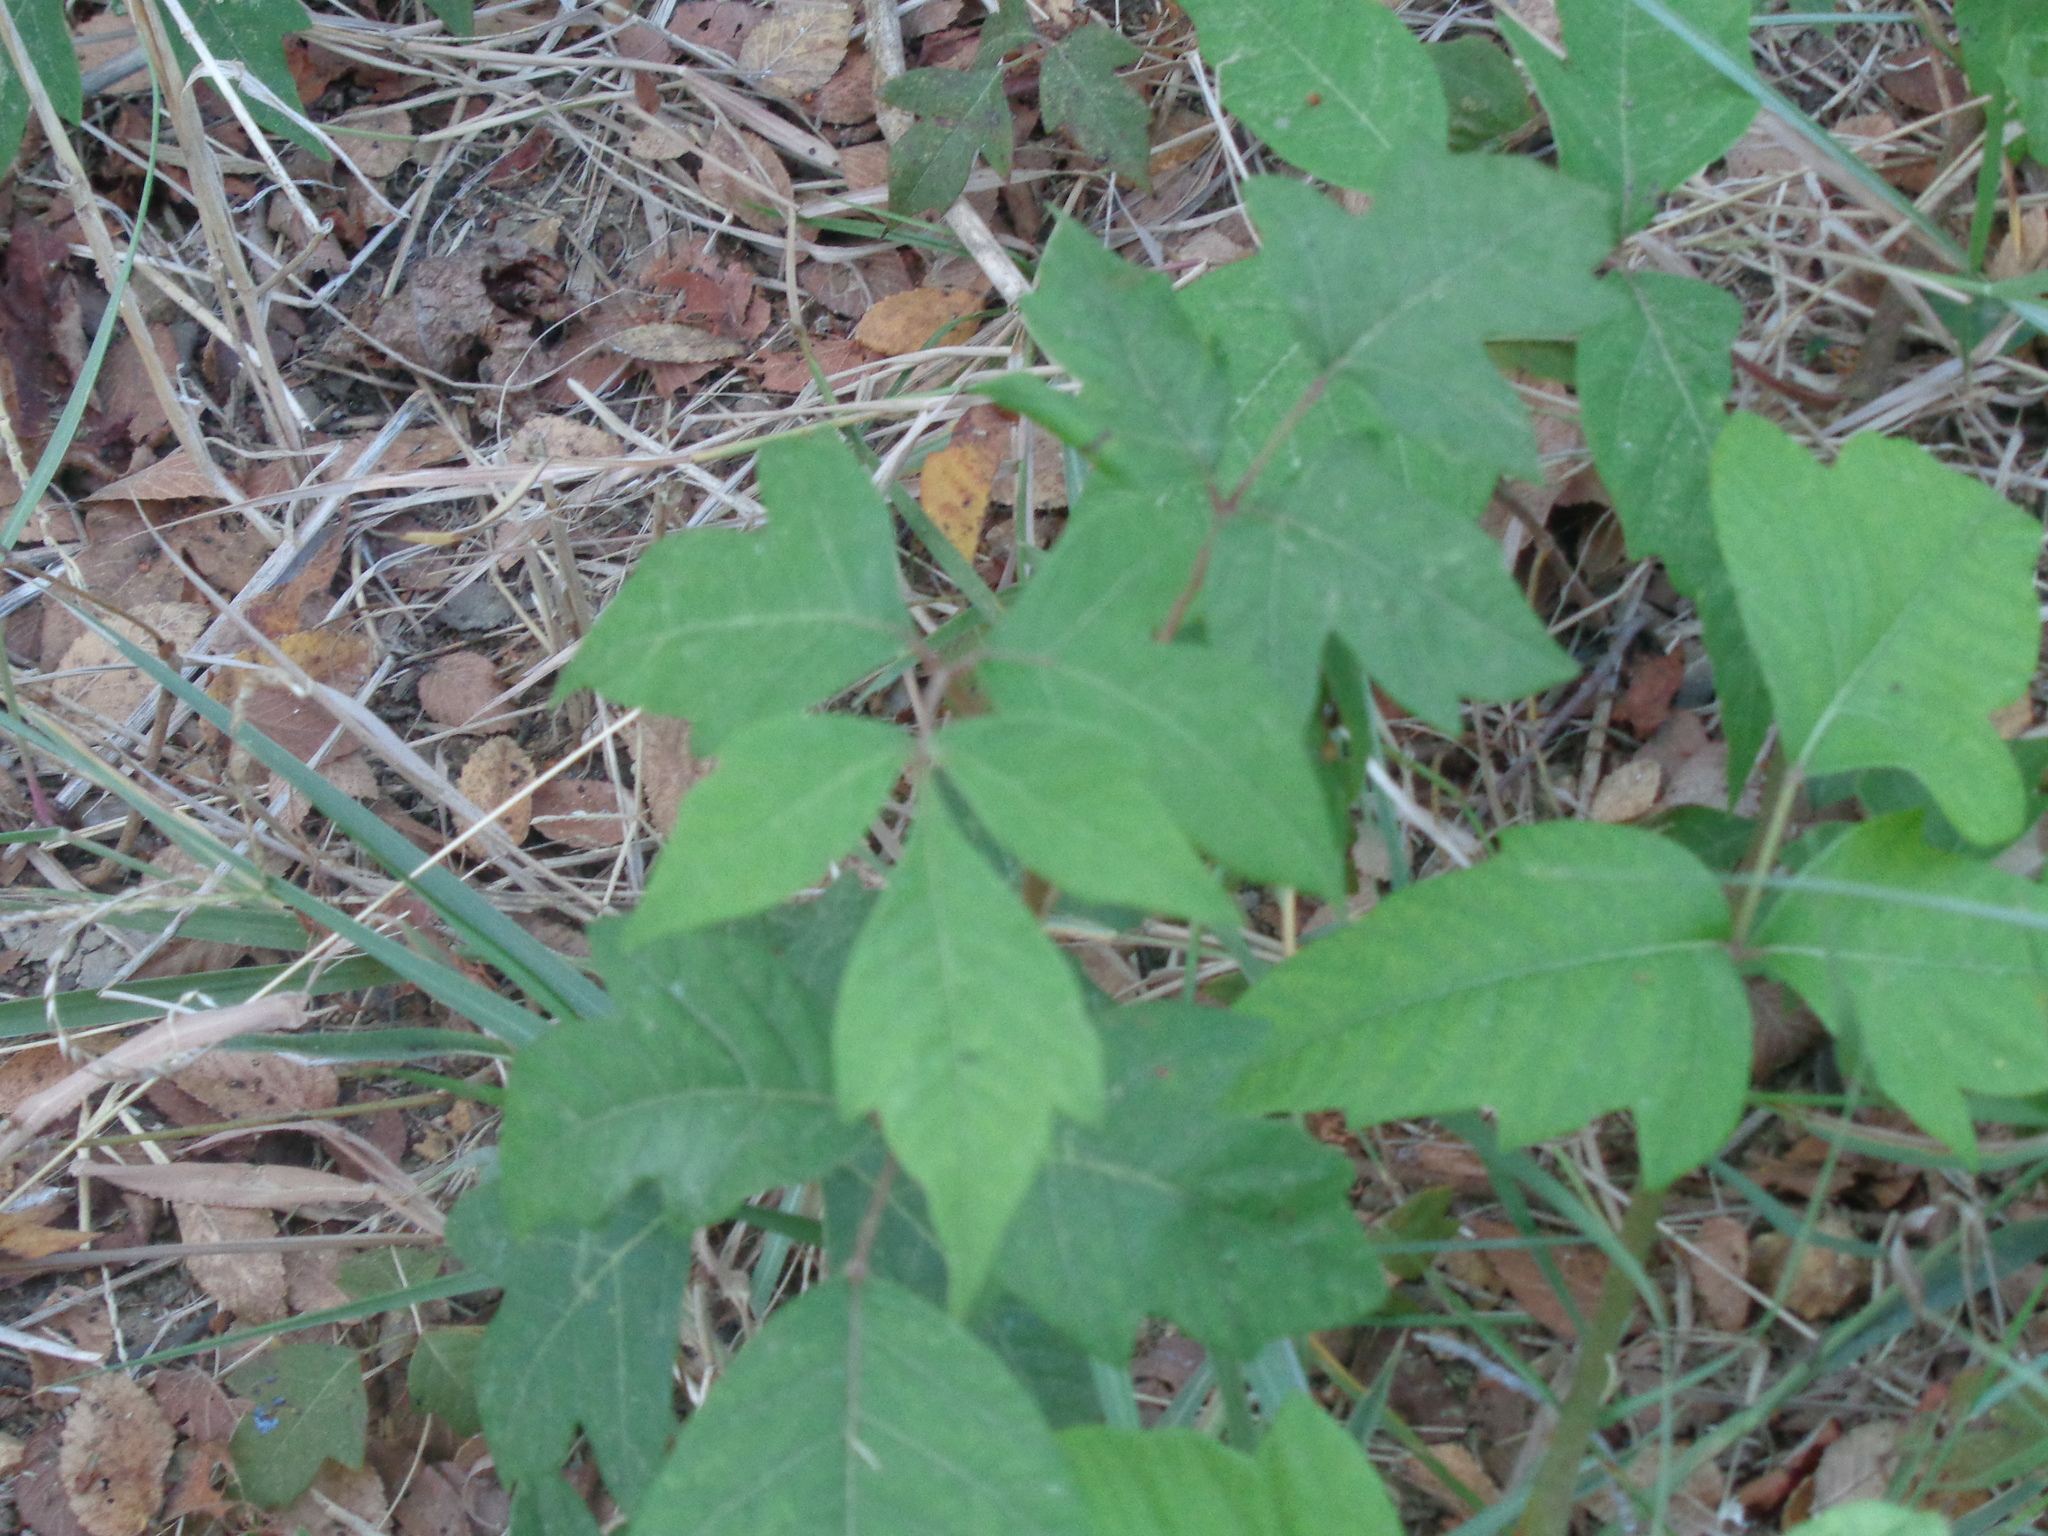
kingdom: Plantae
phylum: Tracheophyta
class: Magnoliopsida
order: Sapindales
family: Anacardiaceae
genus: Toxicodendron
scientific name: Toxicodendron radicans
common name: Poison ivy
